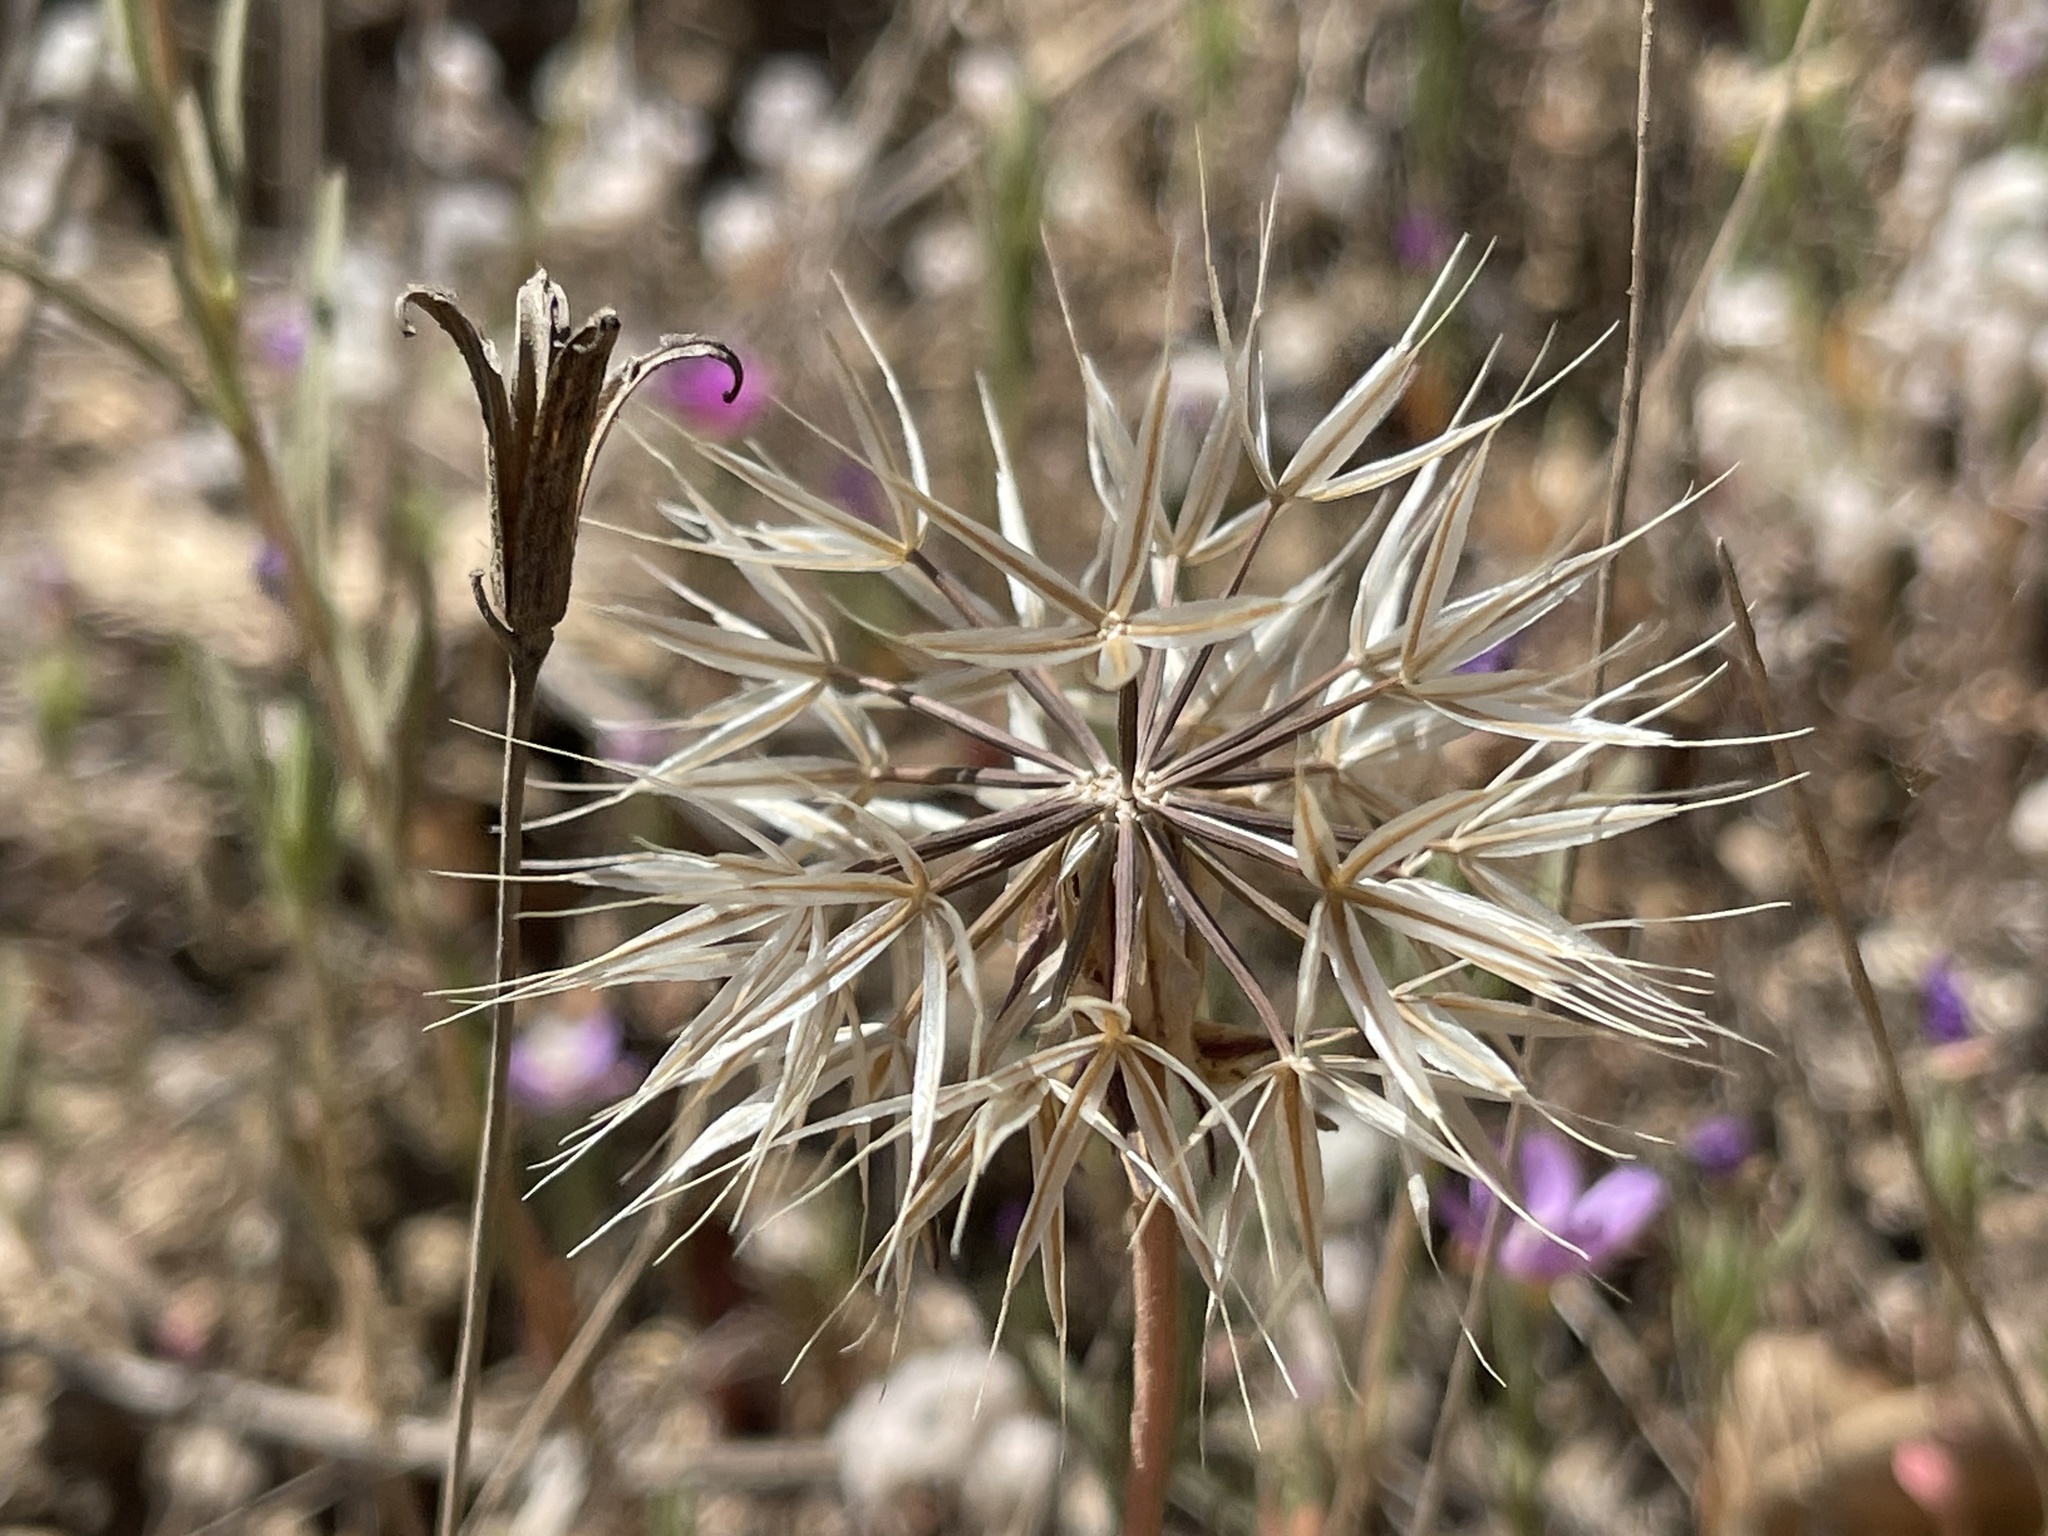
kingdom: Plantae
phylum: Tracheophyta
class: Magnoliopsida
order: Asterales
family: Asteraceae
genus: Microseris
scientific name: Microseris lindleyi
